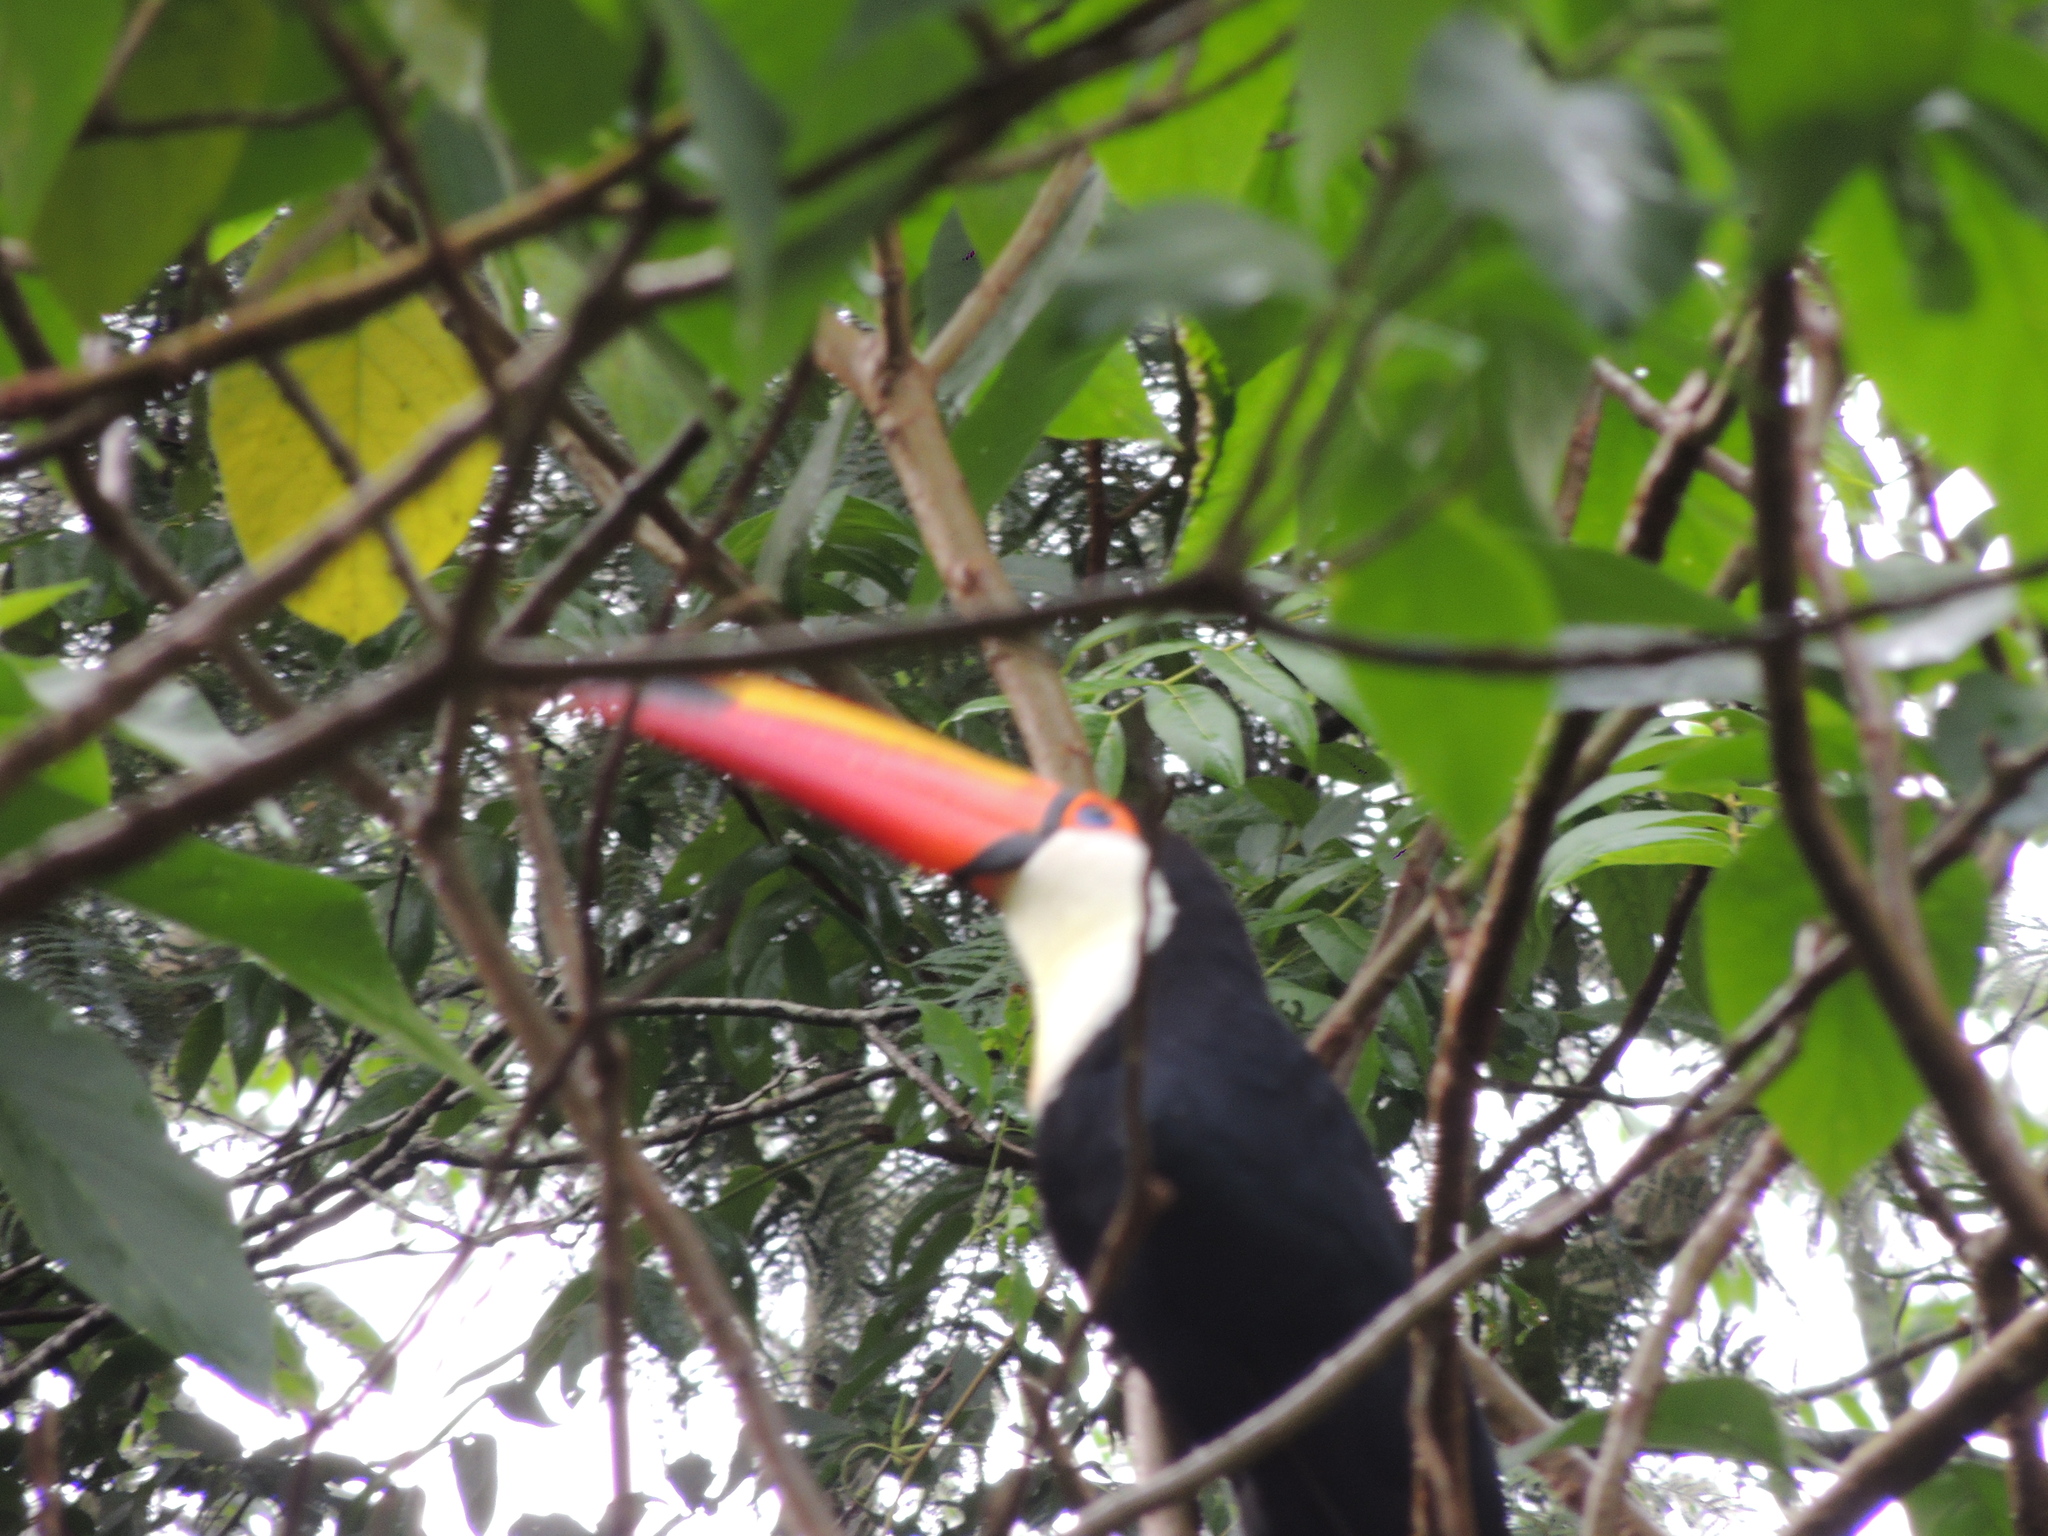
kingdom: Animalia
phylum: Chordata
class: Aves
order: Piciformes
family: Ramphastidae
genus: Ramphastos
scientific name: Ramphastos toco
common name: Toco toucan
